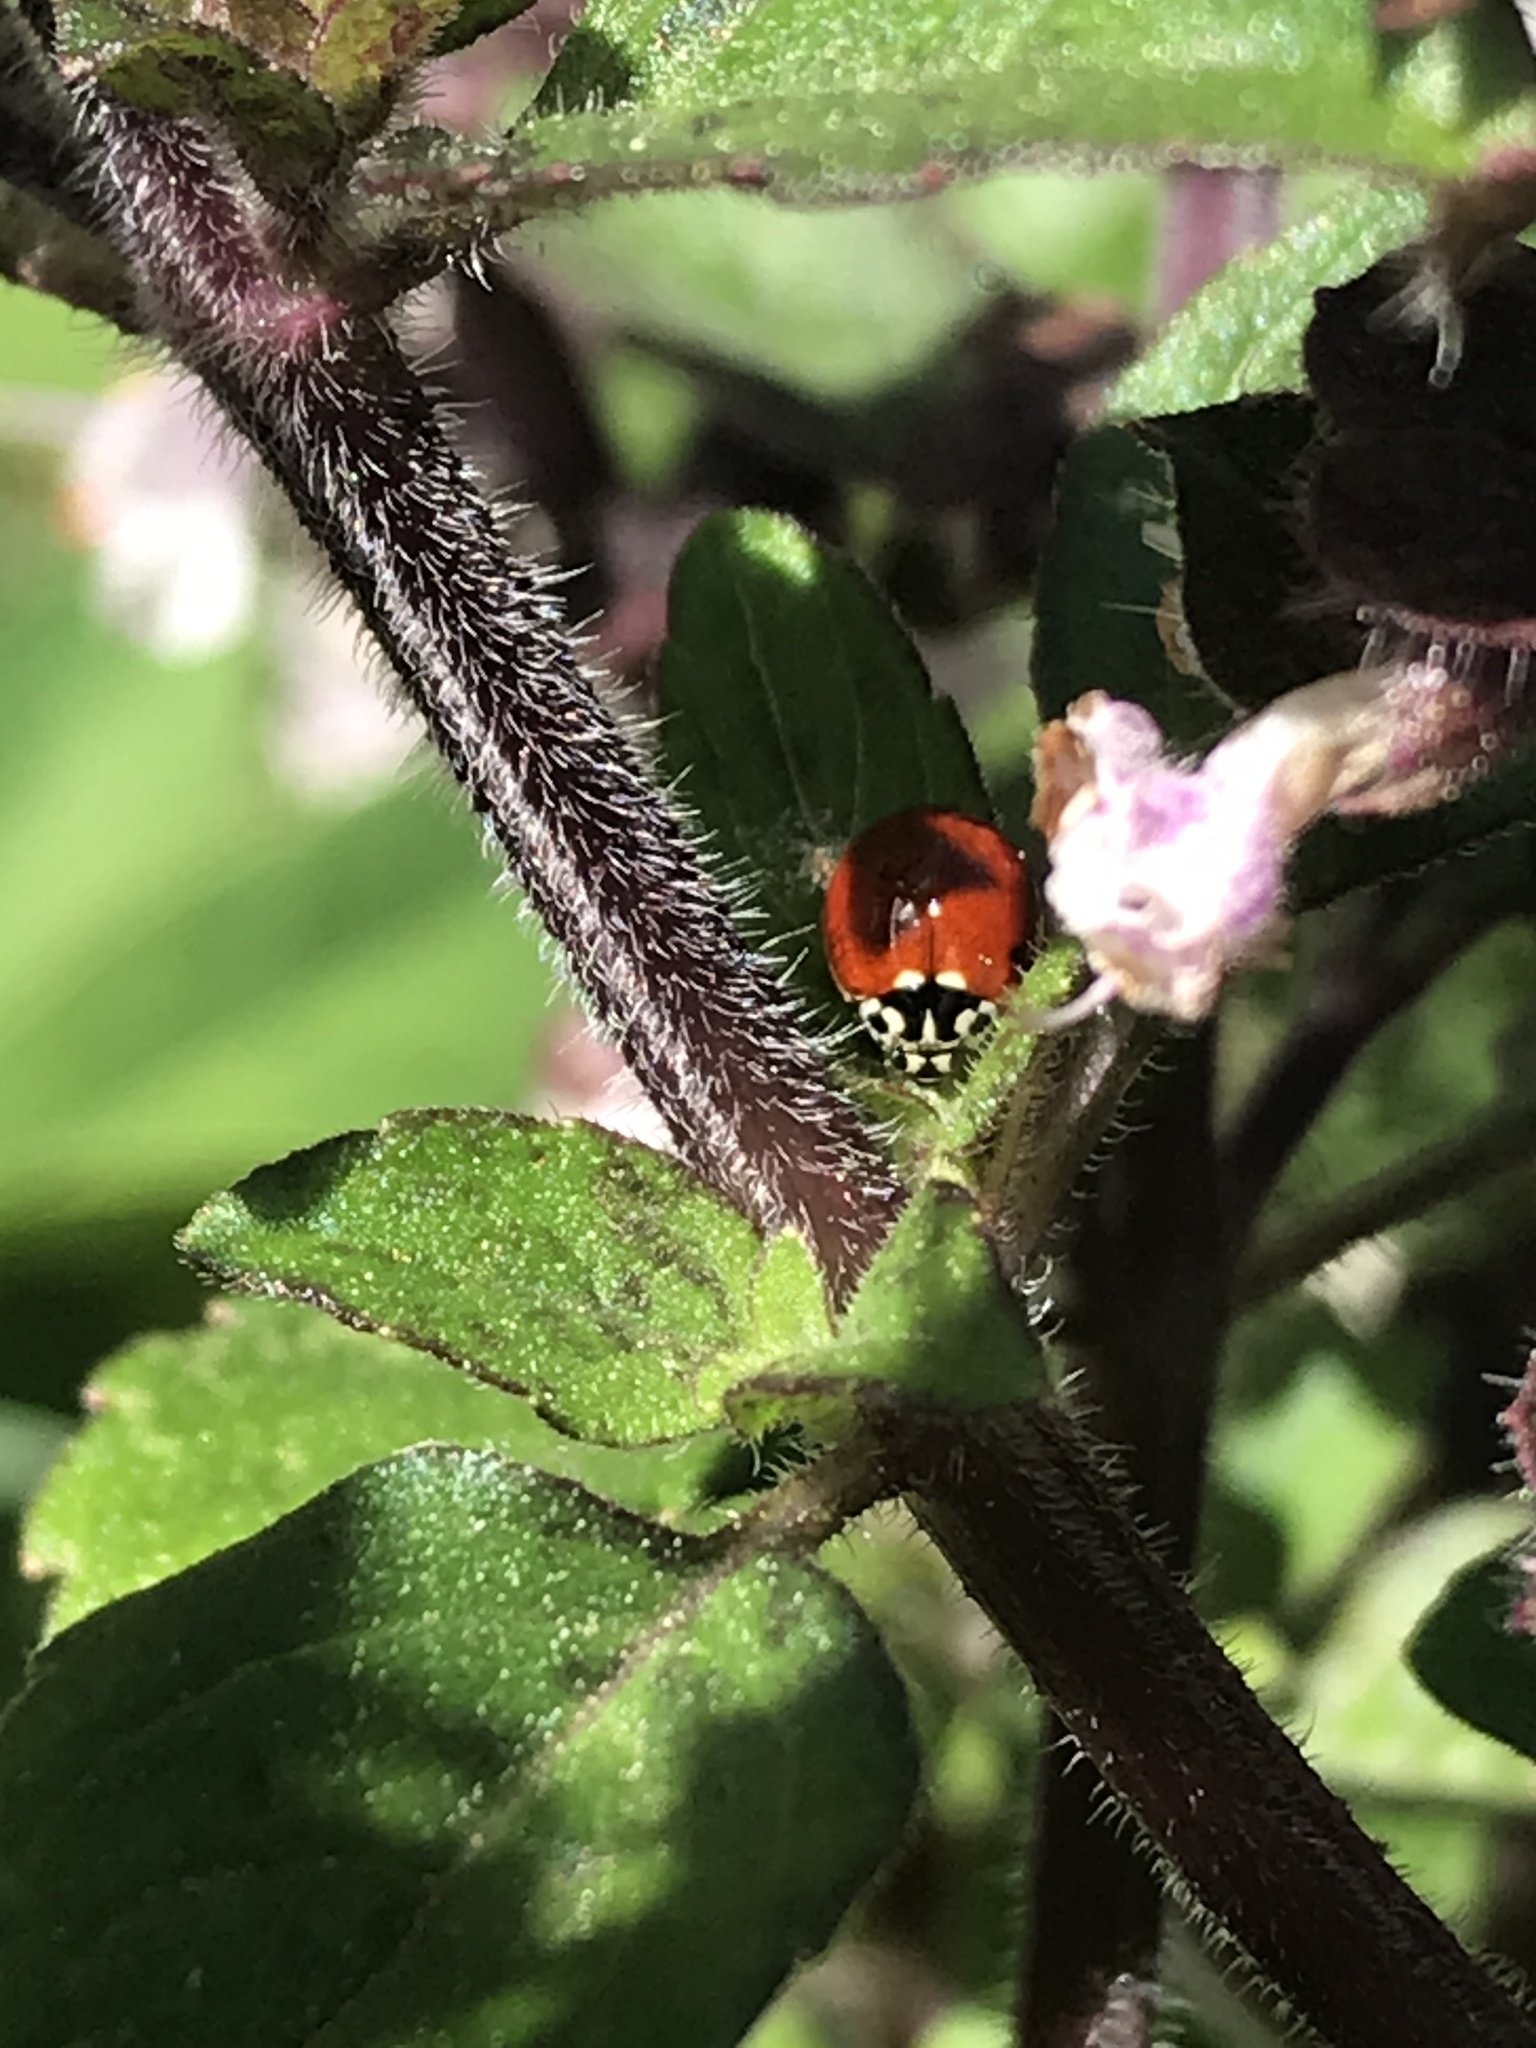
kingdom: Animalia
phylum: Arthropoda
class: Insecta
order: Coleoptera
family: Coccinellidae
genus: Cycloneda
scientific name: Cycloneda polita
